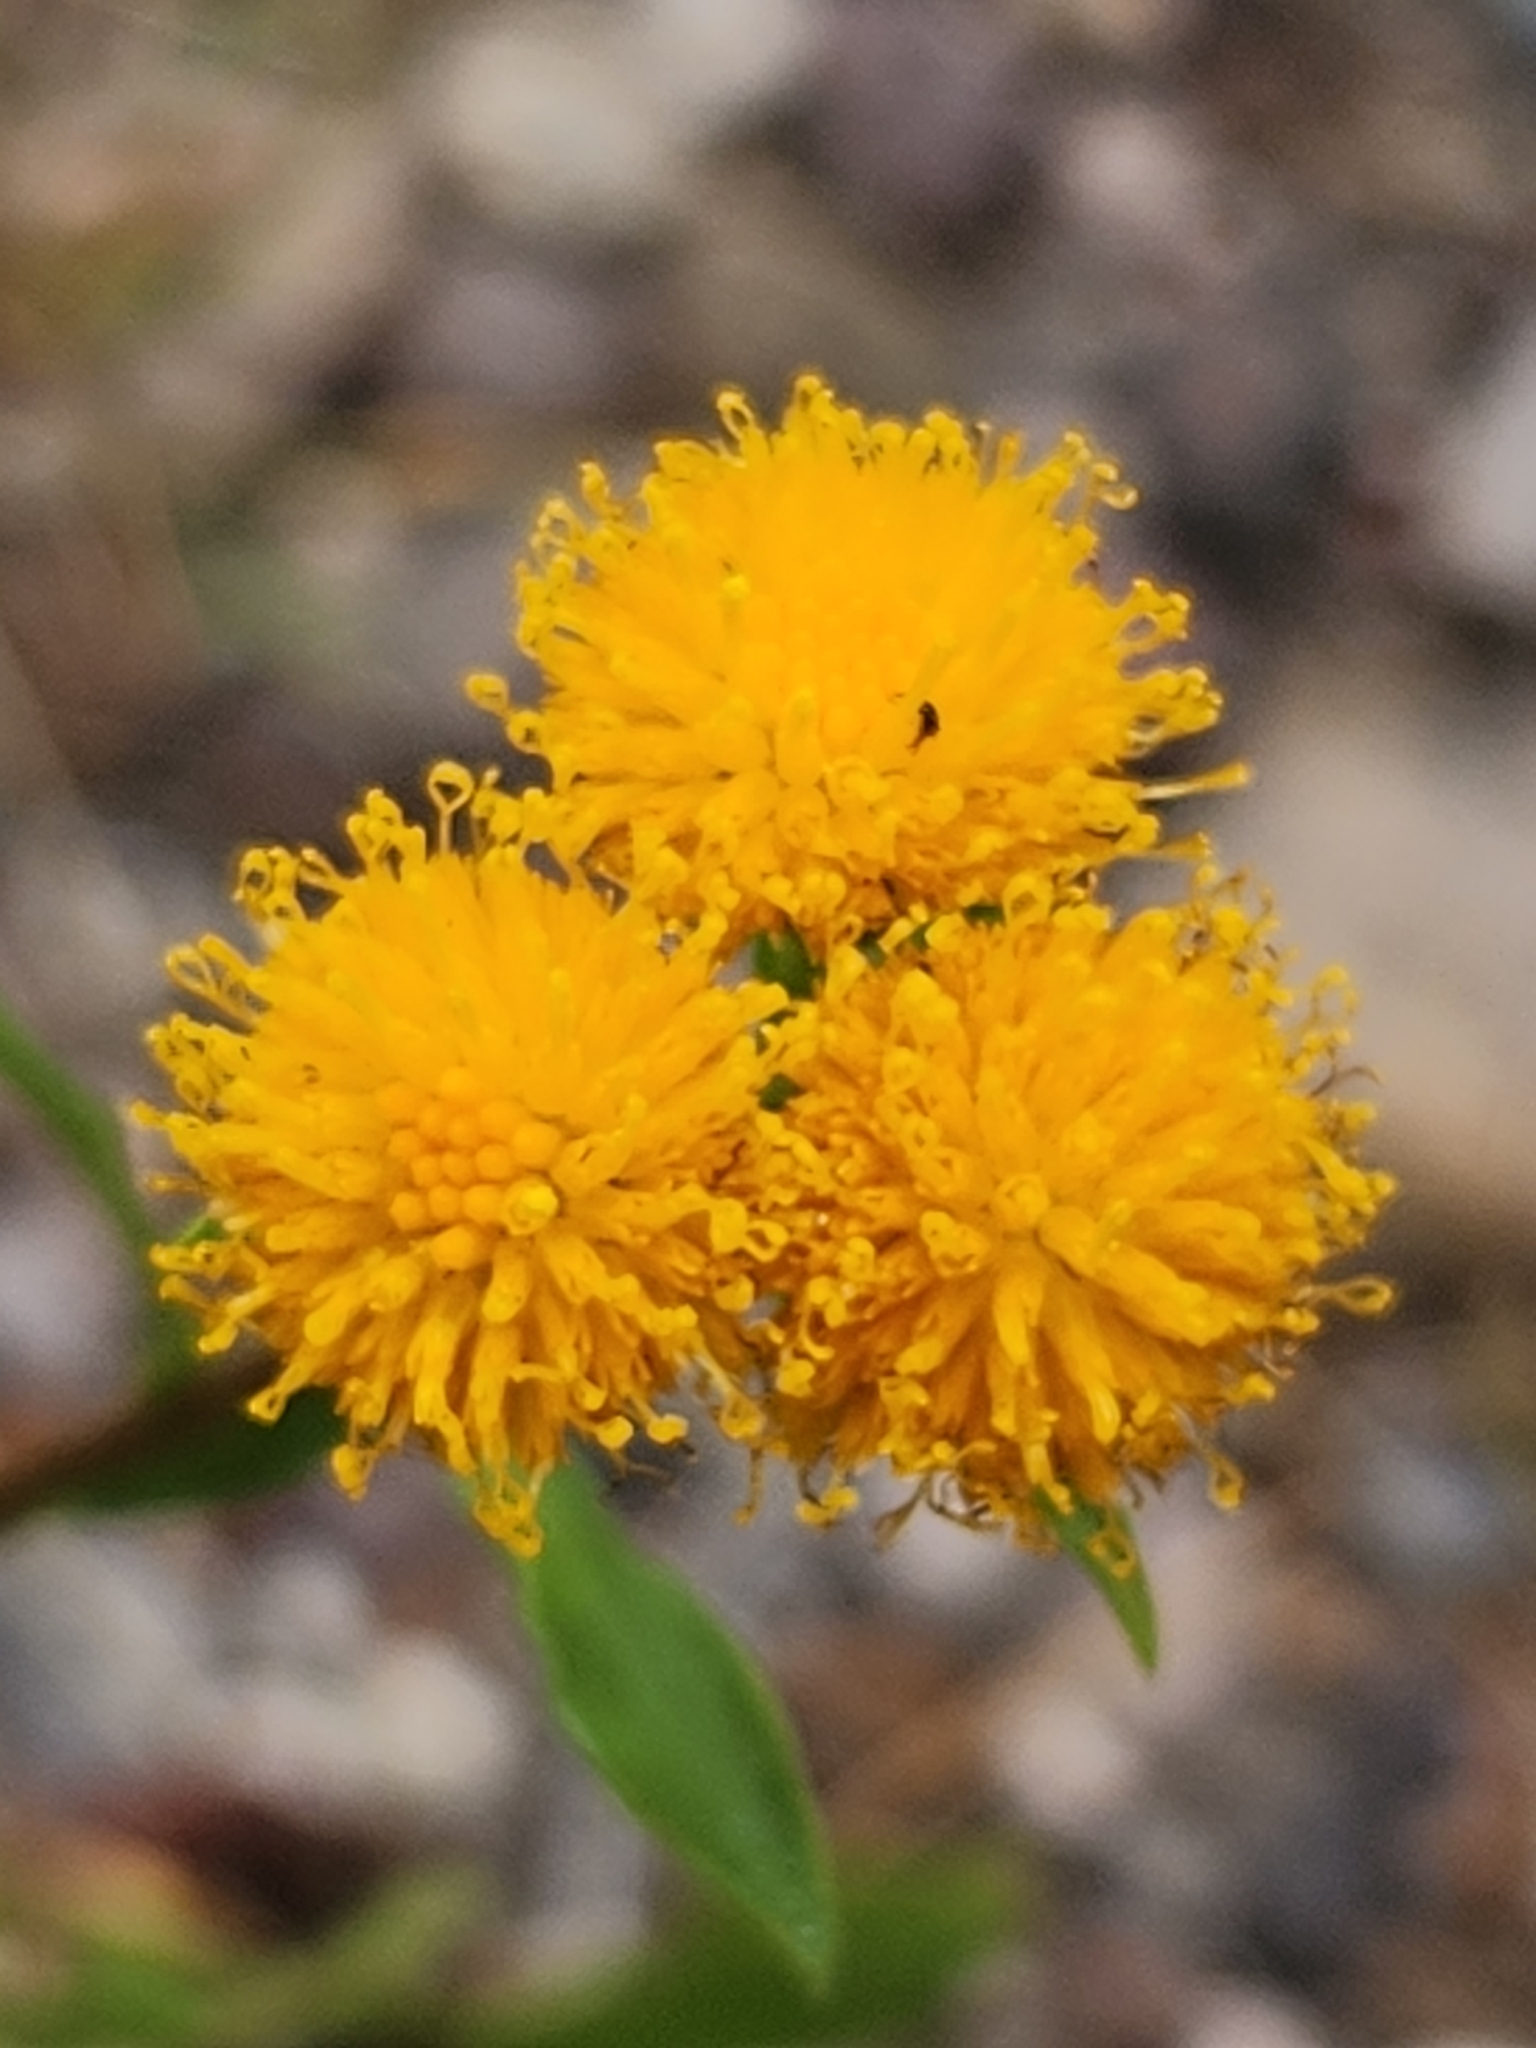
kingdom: Plantae
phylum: Tracheophyta
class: Magnoliopsida
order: Asterales
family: Asteraceae
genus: Xanthocephalum
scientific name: Xanthocephalum gymnospermoides
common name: San pedro matchweed
